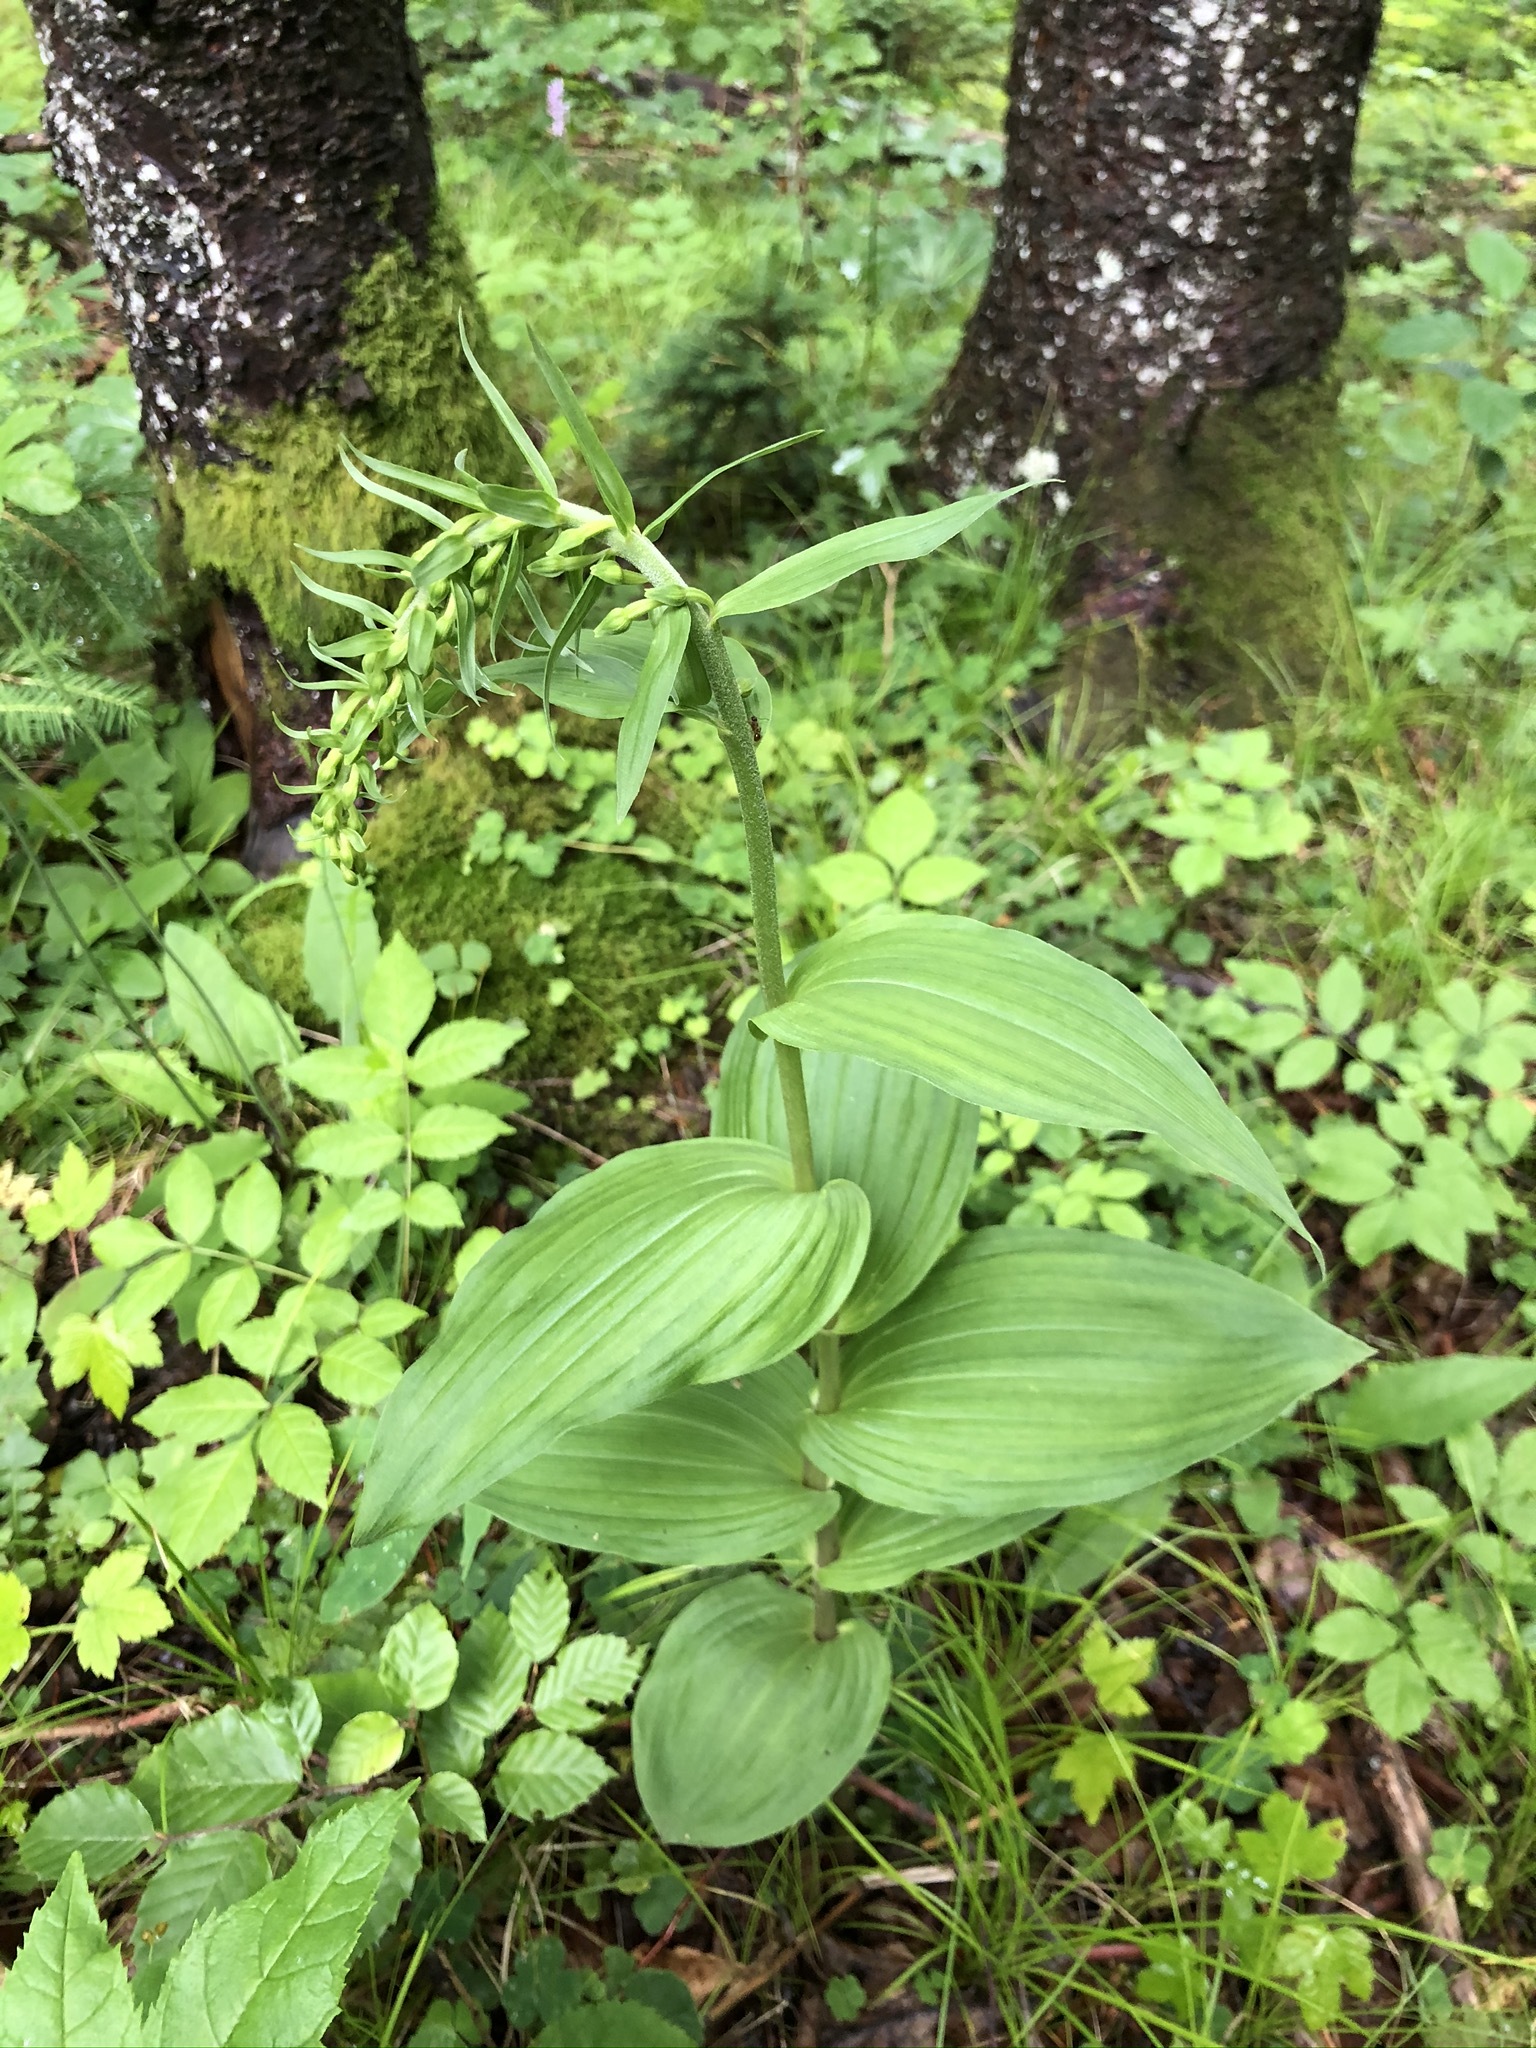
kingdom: Plantae
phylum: Tracheophyta
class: Liliopsida
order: Asparagales
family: Orchidaceae
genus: Epipactis
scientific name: Epipactis helleborine
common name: Broad-leaved helleborine
